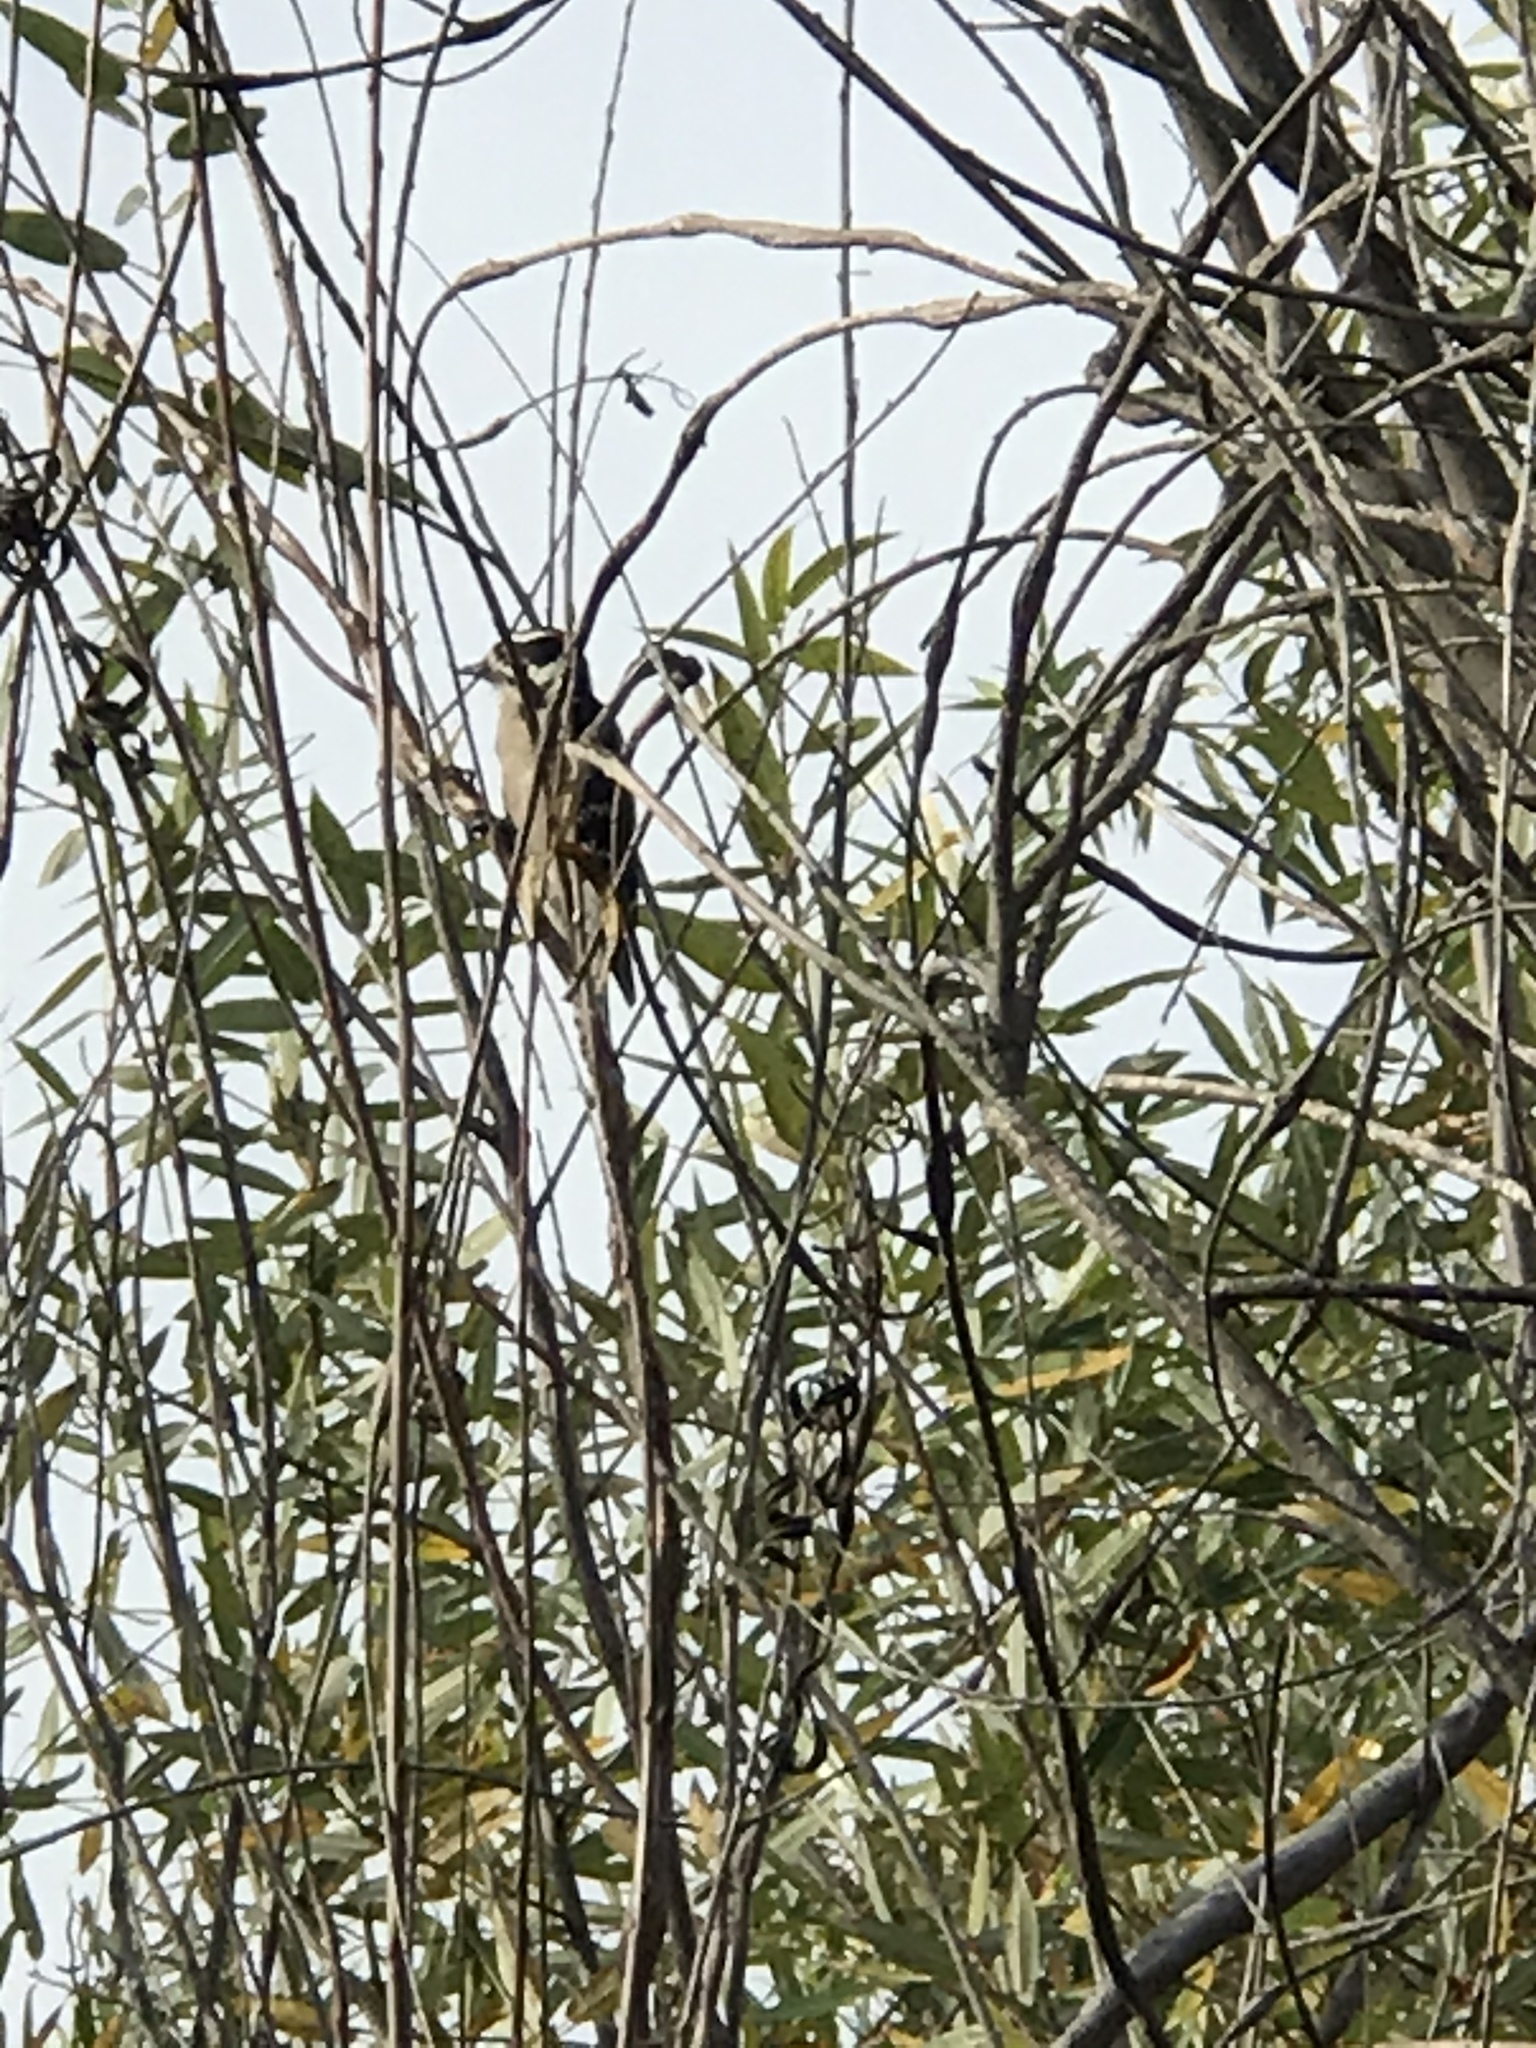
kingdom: Animalia
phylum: Chordata
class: Aves
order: Piciformes
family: Picidae
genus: Dryobates
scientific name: Dryobates pubescens
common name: Downy woodpecker
